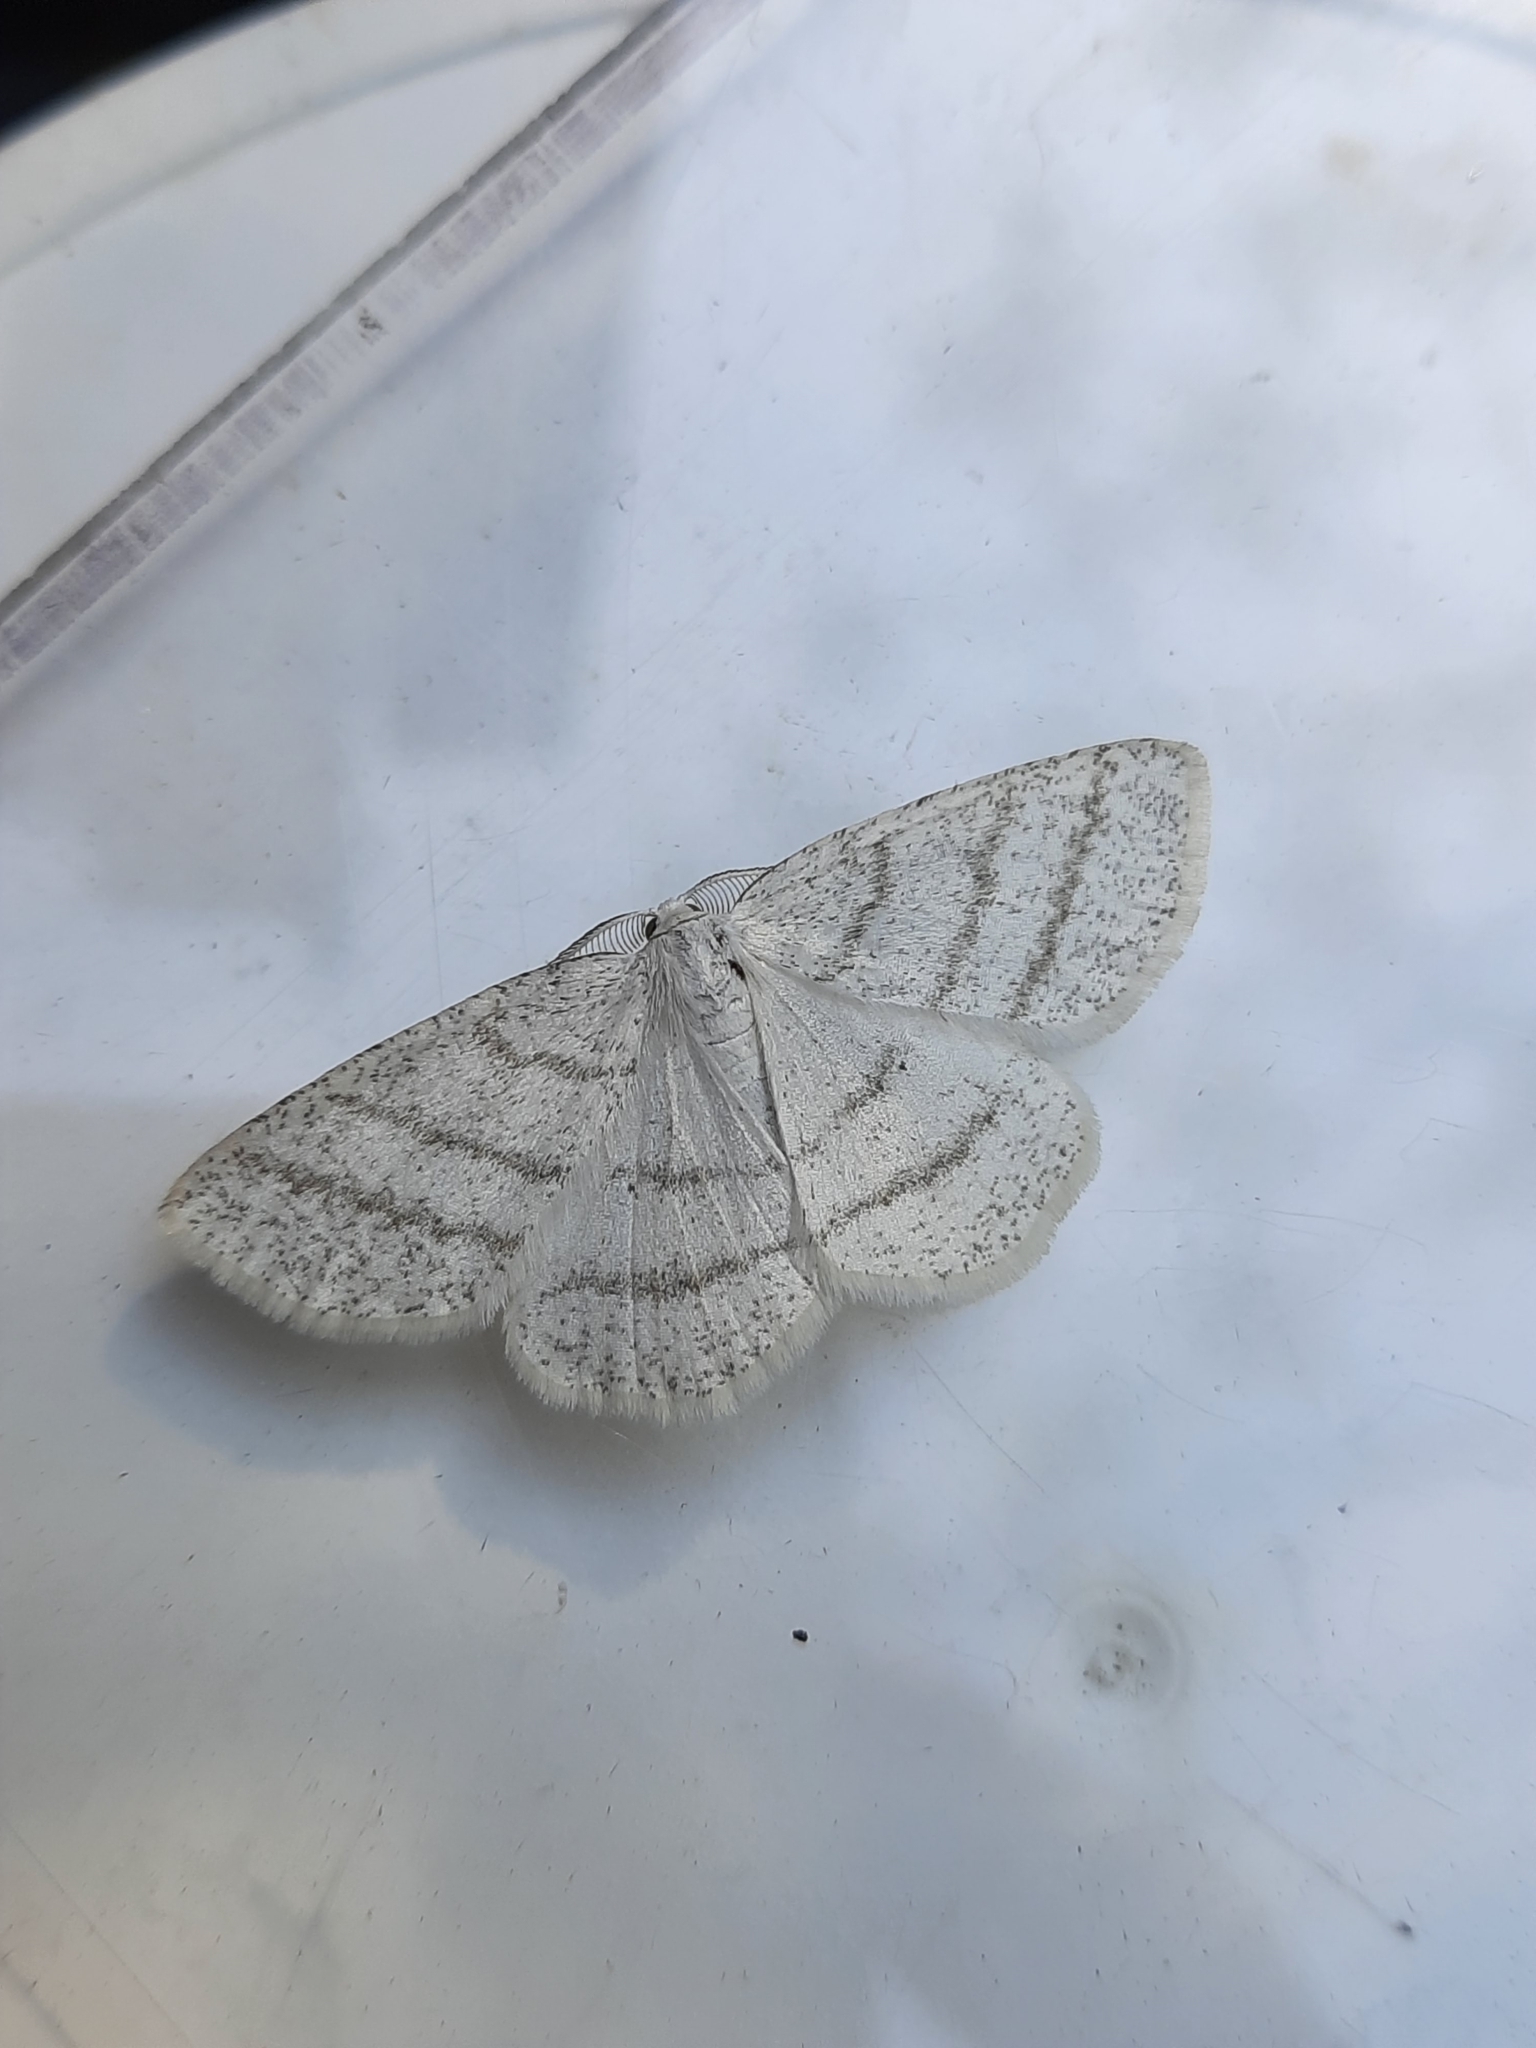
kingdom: Animalia
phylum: Arthropoda
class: Insecta
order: Lepidoptera
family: Geometridae
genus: Cabera
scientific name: Cabera pusaria
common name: Common white wave
